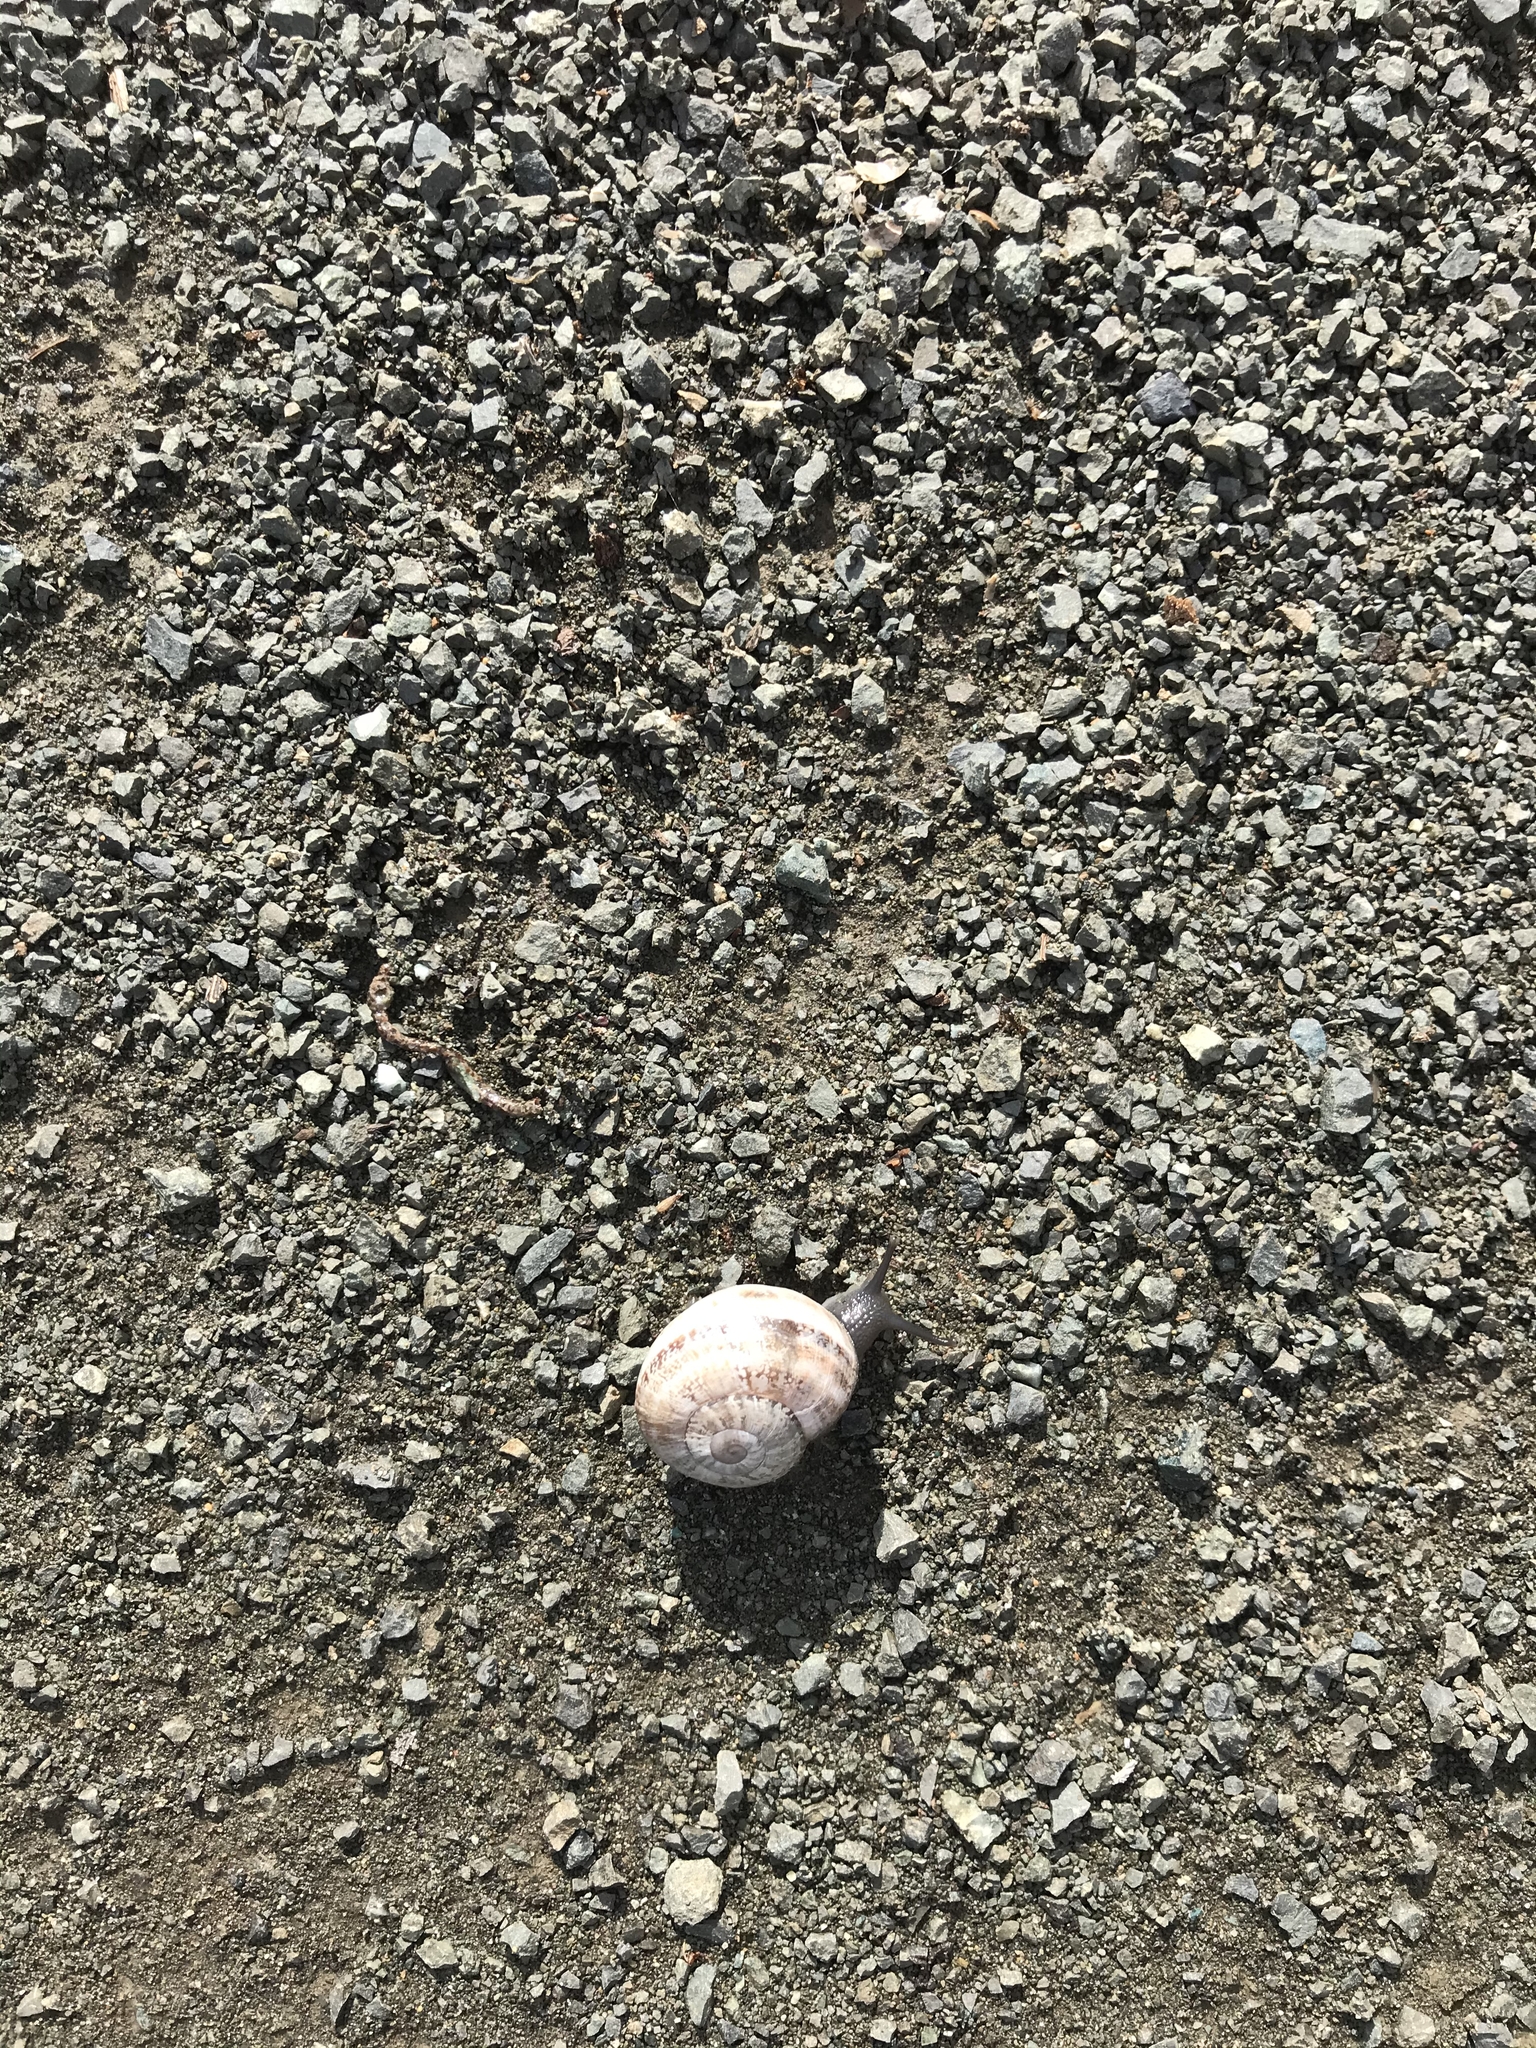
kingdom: Animalia
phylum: Mollusca
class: Gastropoda
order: Stylommatophora
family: Helicidae
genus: Otala
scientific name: Otala lactea
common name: Milk snail
